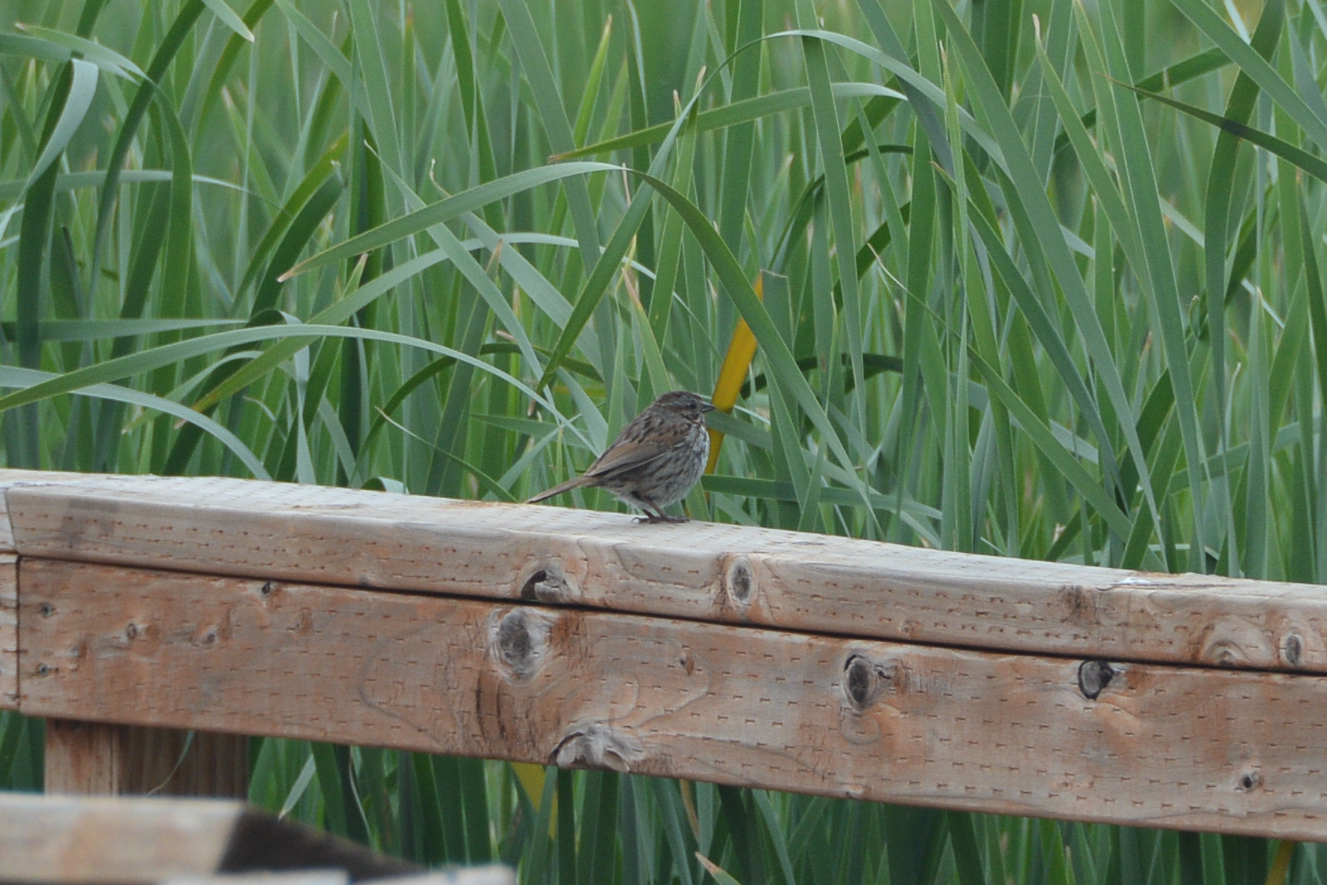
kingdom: Animalia
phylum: Chordata
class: Aves
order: Passeriformes
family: Passerellidae
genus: Melospiza
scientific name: Melospiza melodia
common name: Song sparrow
